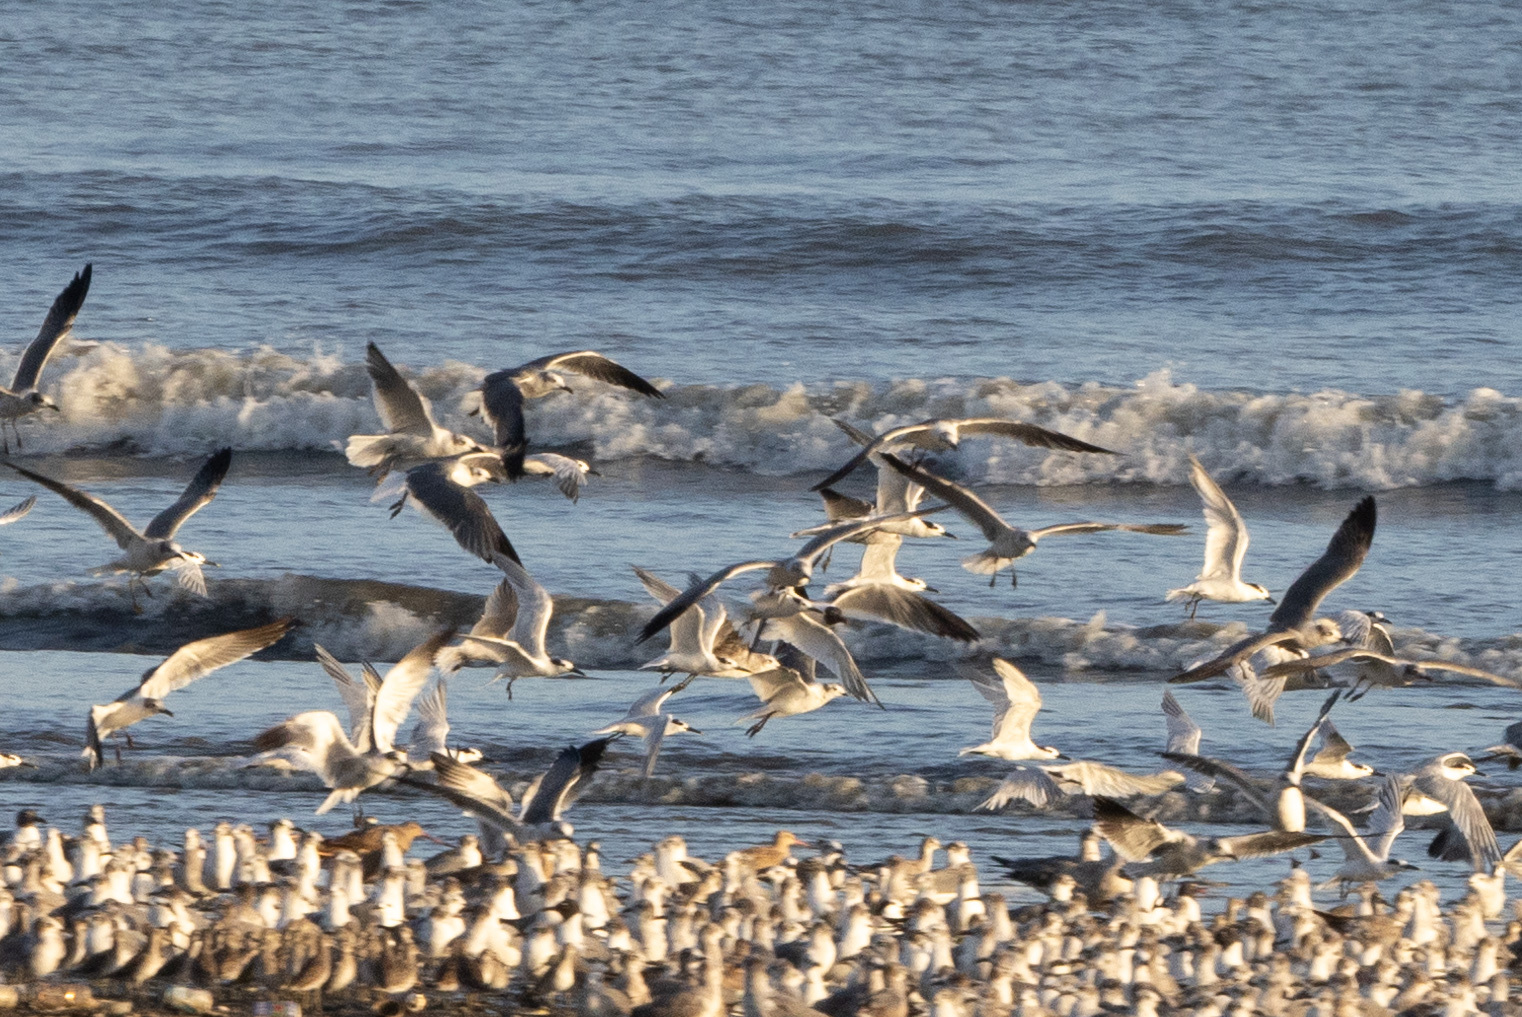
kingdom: Animalia
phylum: Chordata
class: Aves
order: Charadriiformes
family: Laridae
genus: Thalasseus
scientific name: Thalasseus sandvicensis
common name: Sandwich tern
